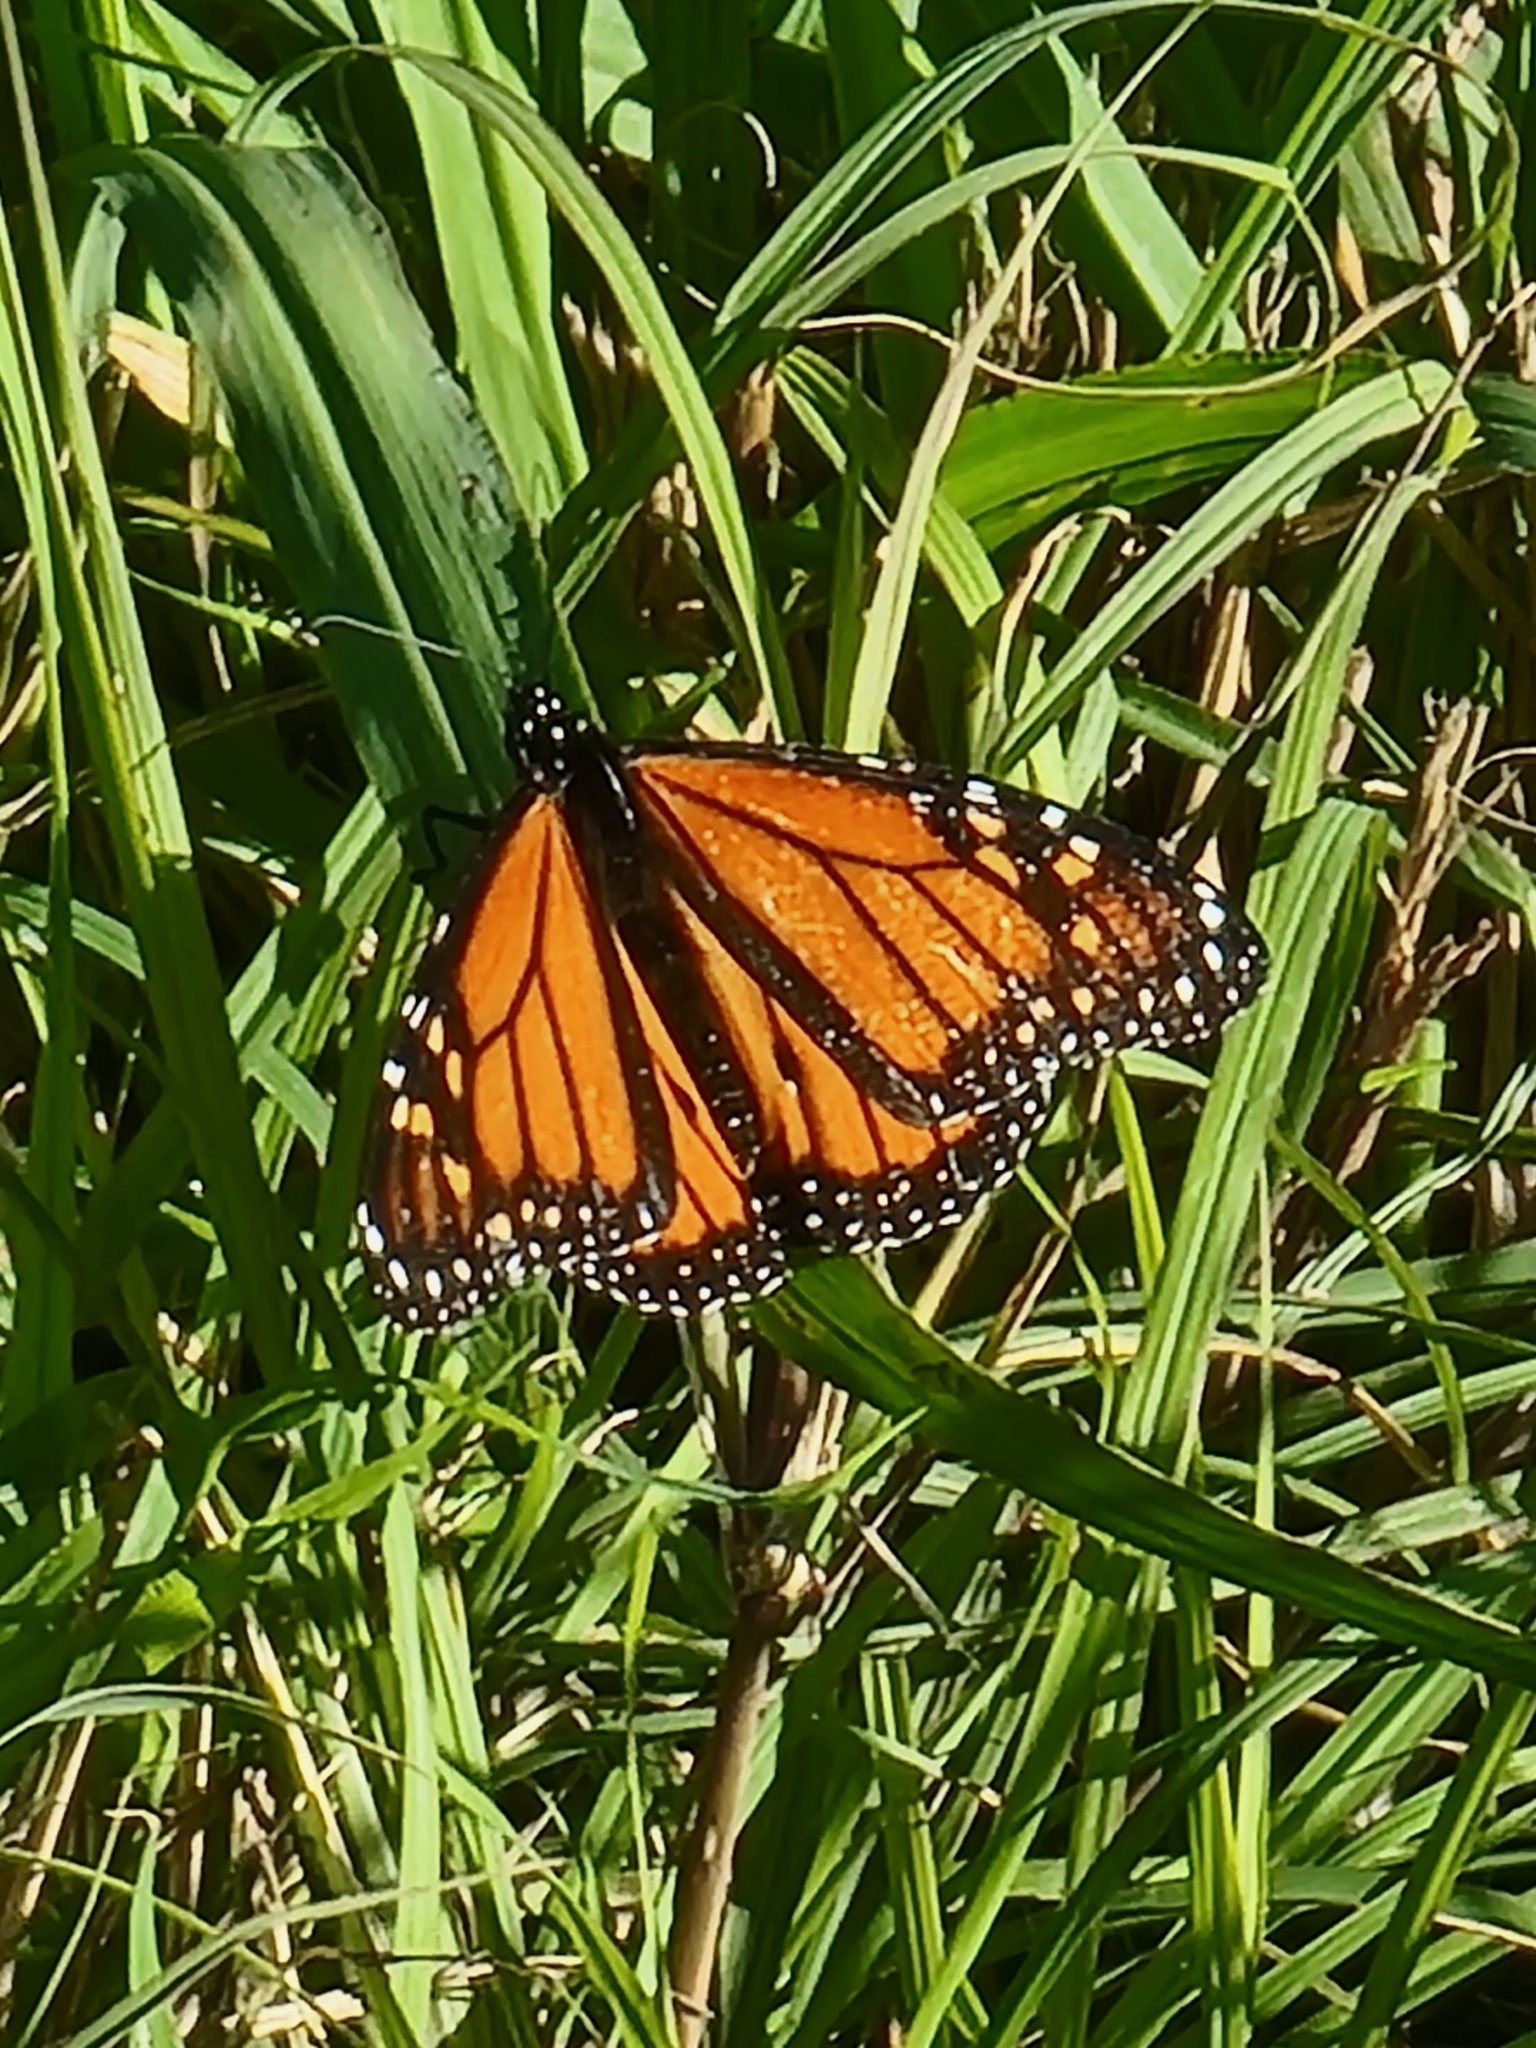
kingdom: Animalia
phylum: Arthropoda
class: Insecta
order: Lepidoptera
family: Nymphalidae
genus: Danaus
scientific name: Danaus plexippus
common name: Monarch
